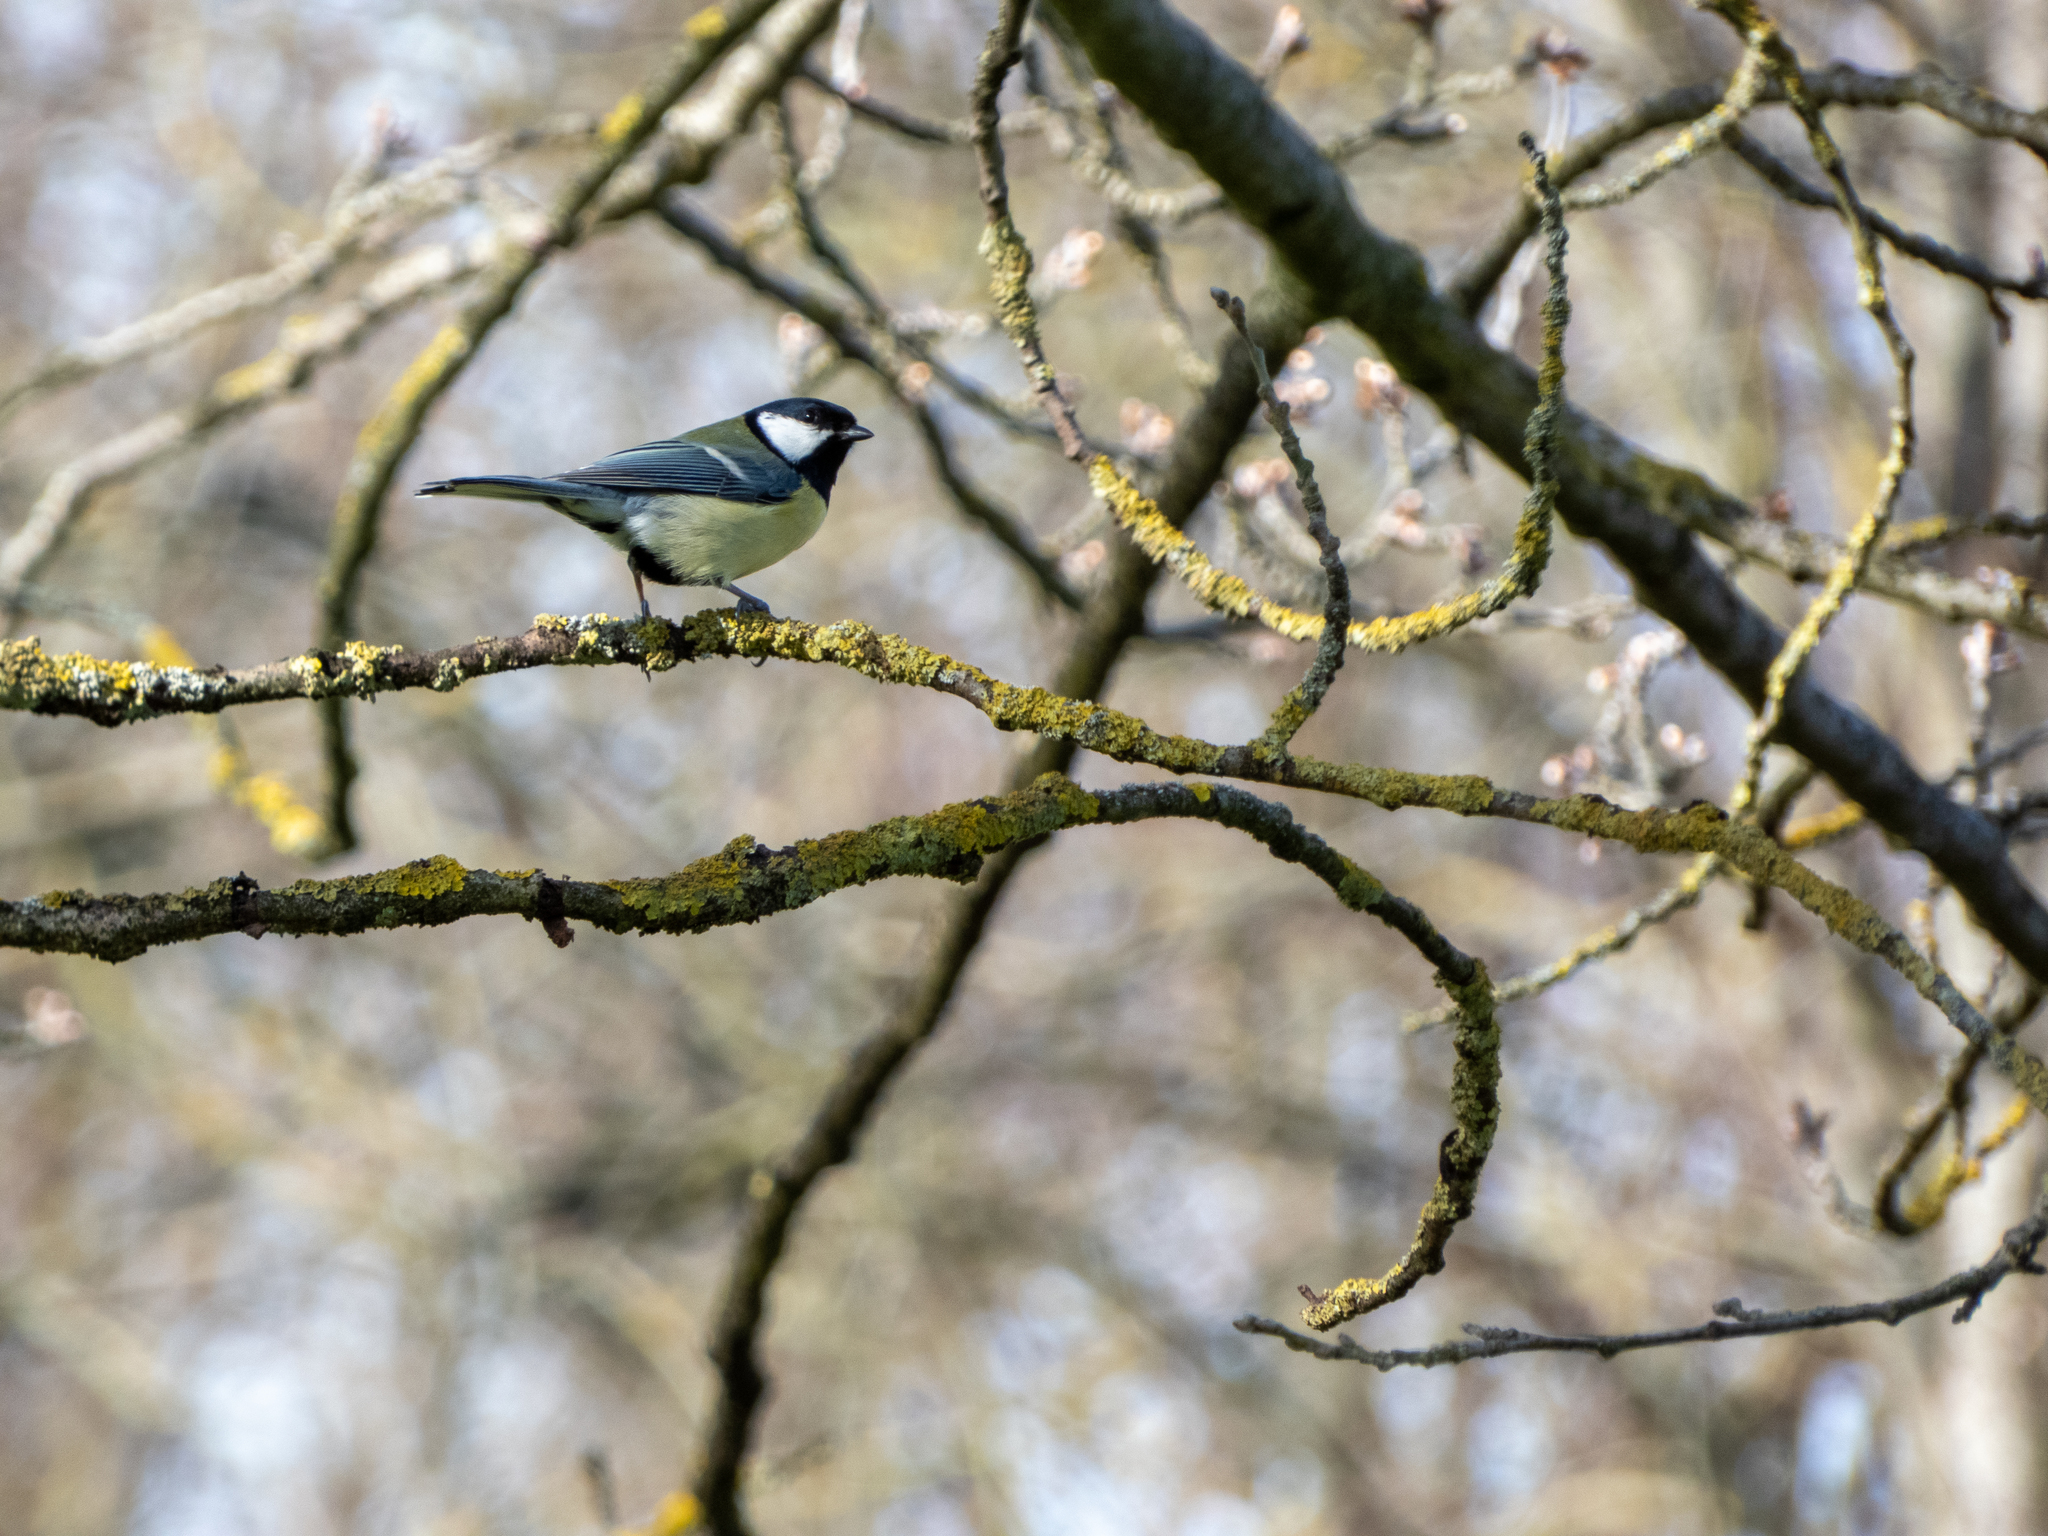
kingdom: Animalia
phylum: Chordata
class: Aves
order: Passeriformes
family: Paridae
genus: Parus
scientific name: Parus major
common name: Great tit
